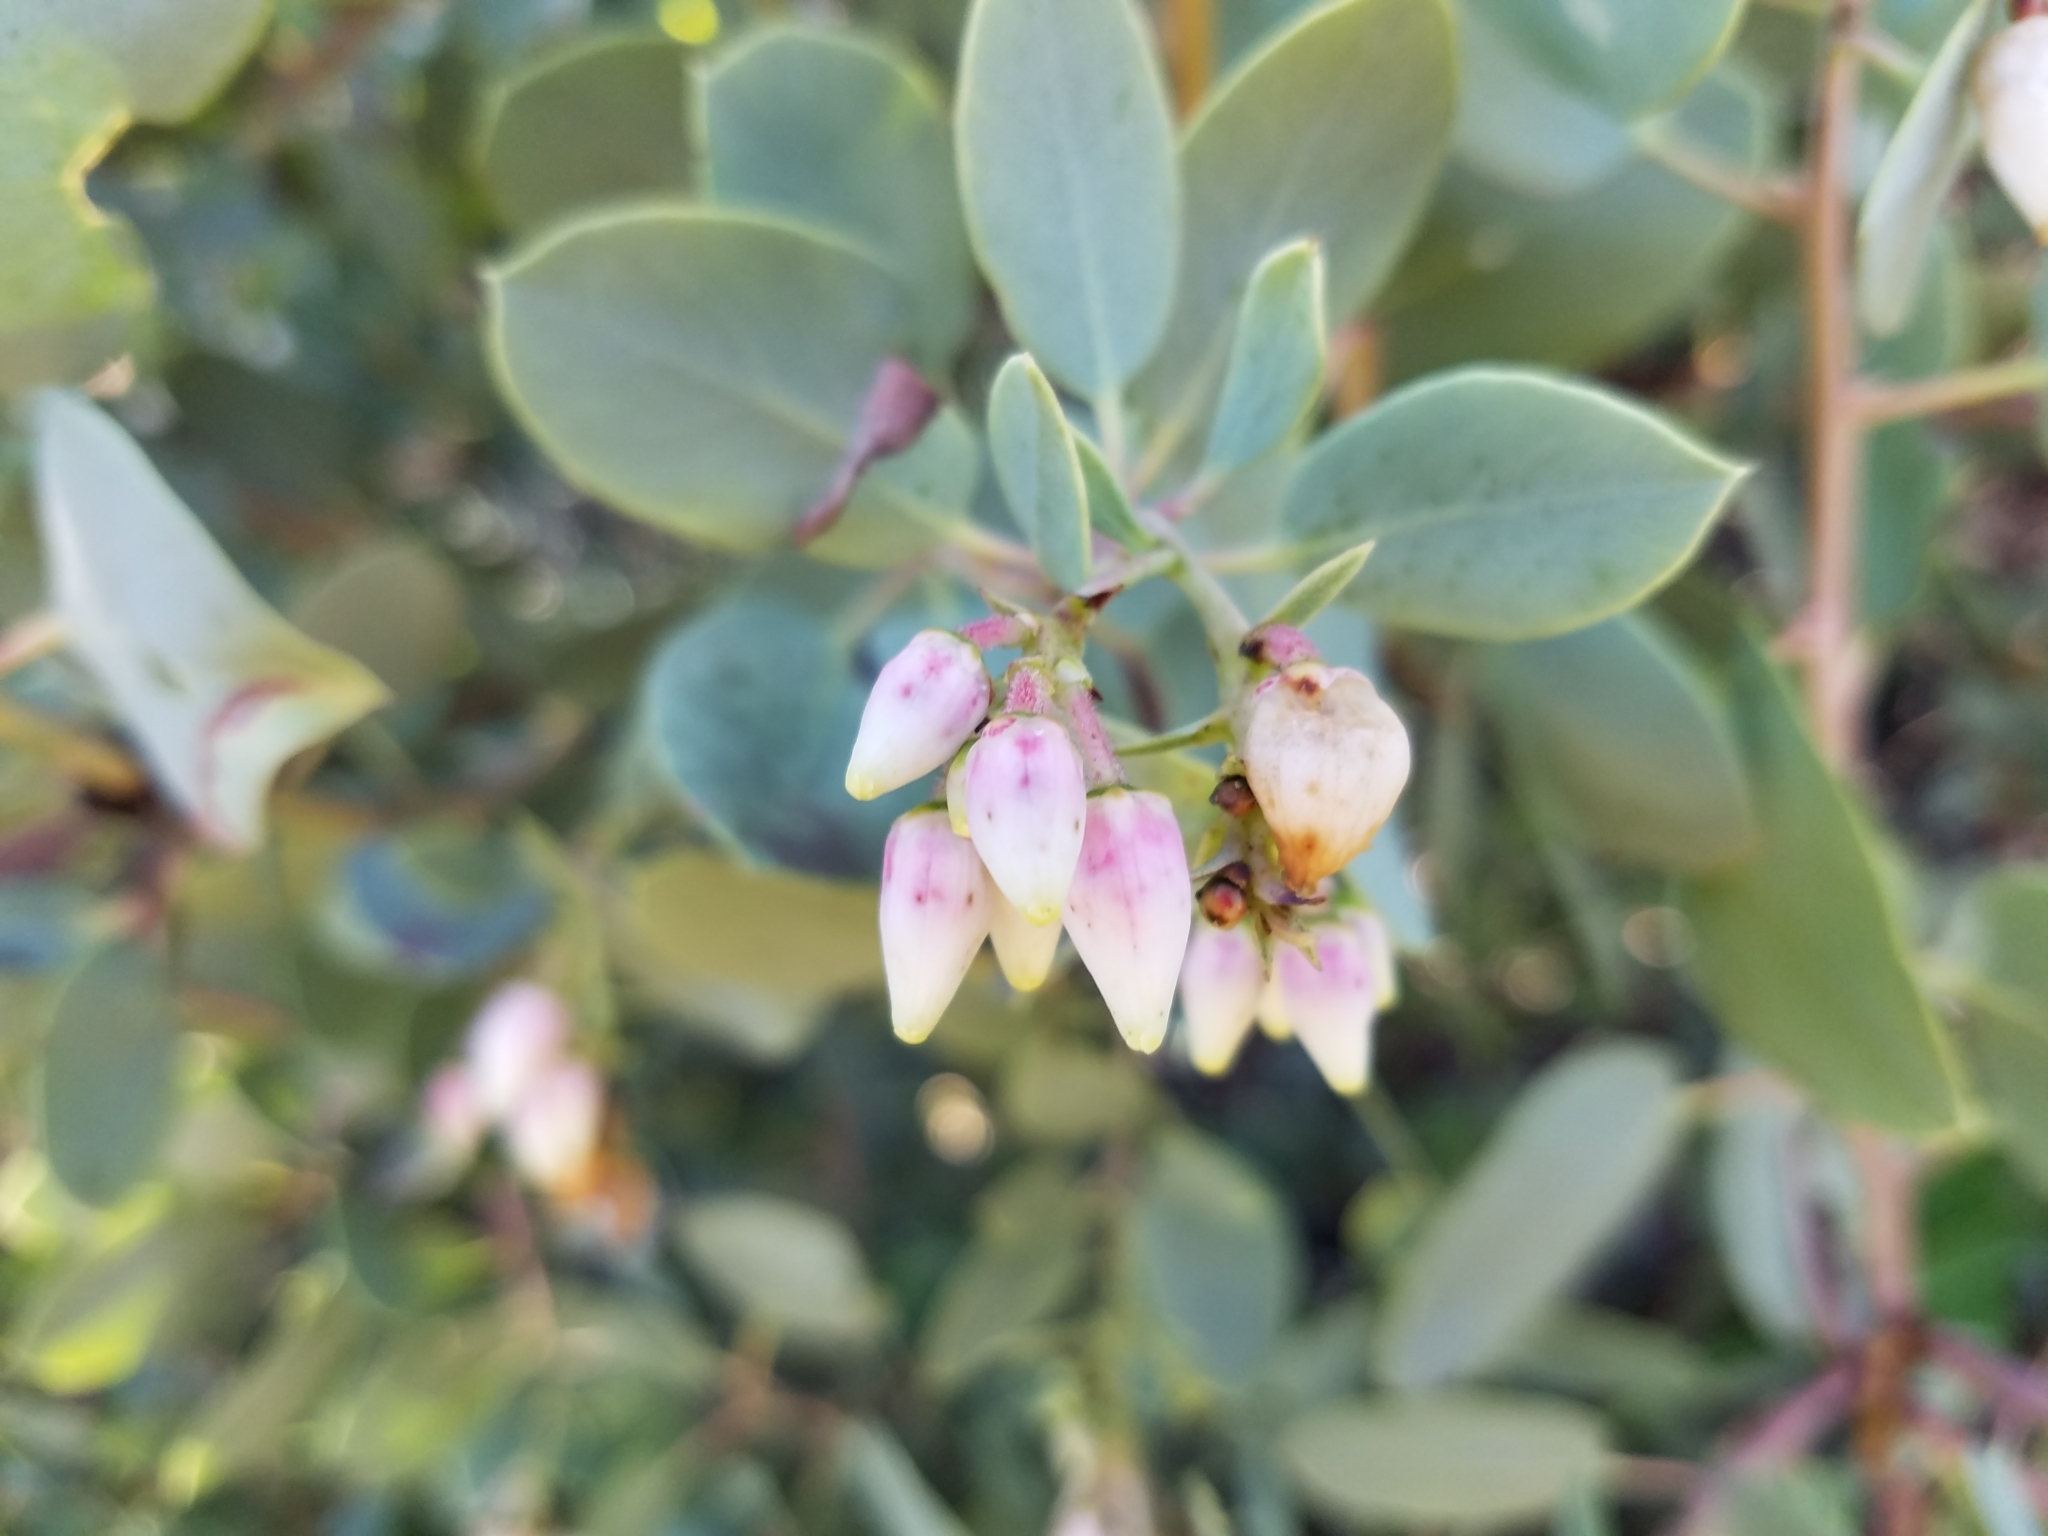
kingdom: Plantae
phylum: Tracheophyta
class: Magnoliopsida
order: Ericales
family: Ericaceae
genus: Arctostaphylos
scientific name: Arctostaphylos glauca
